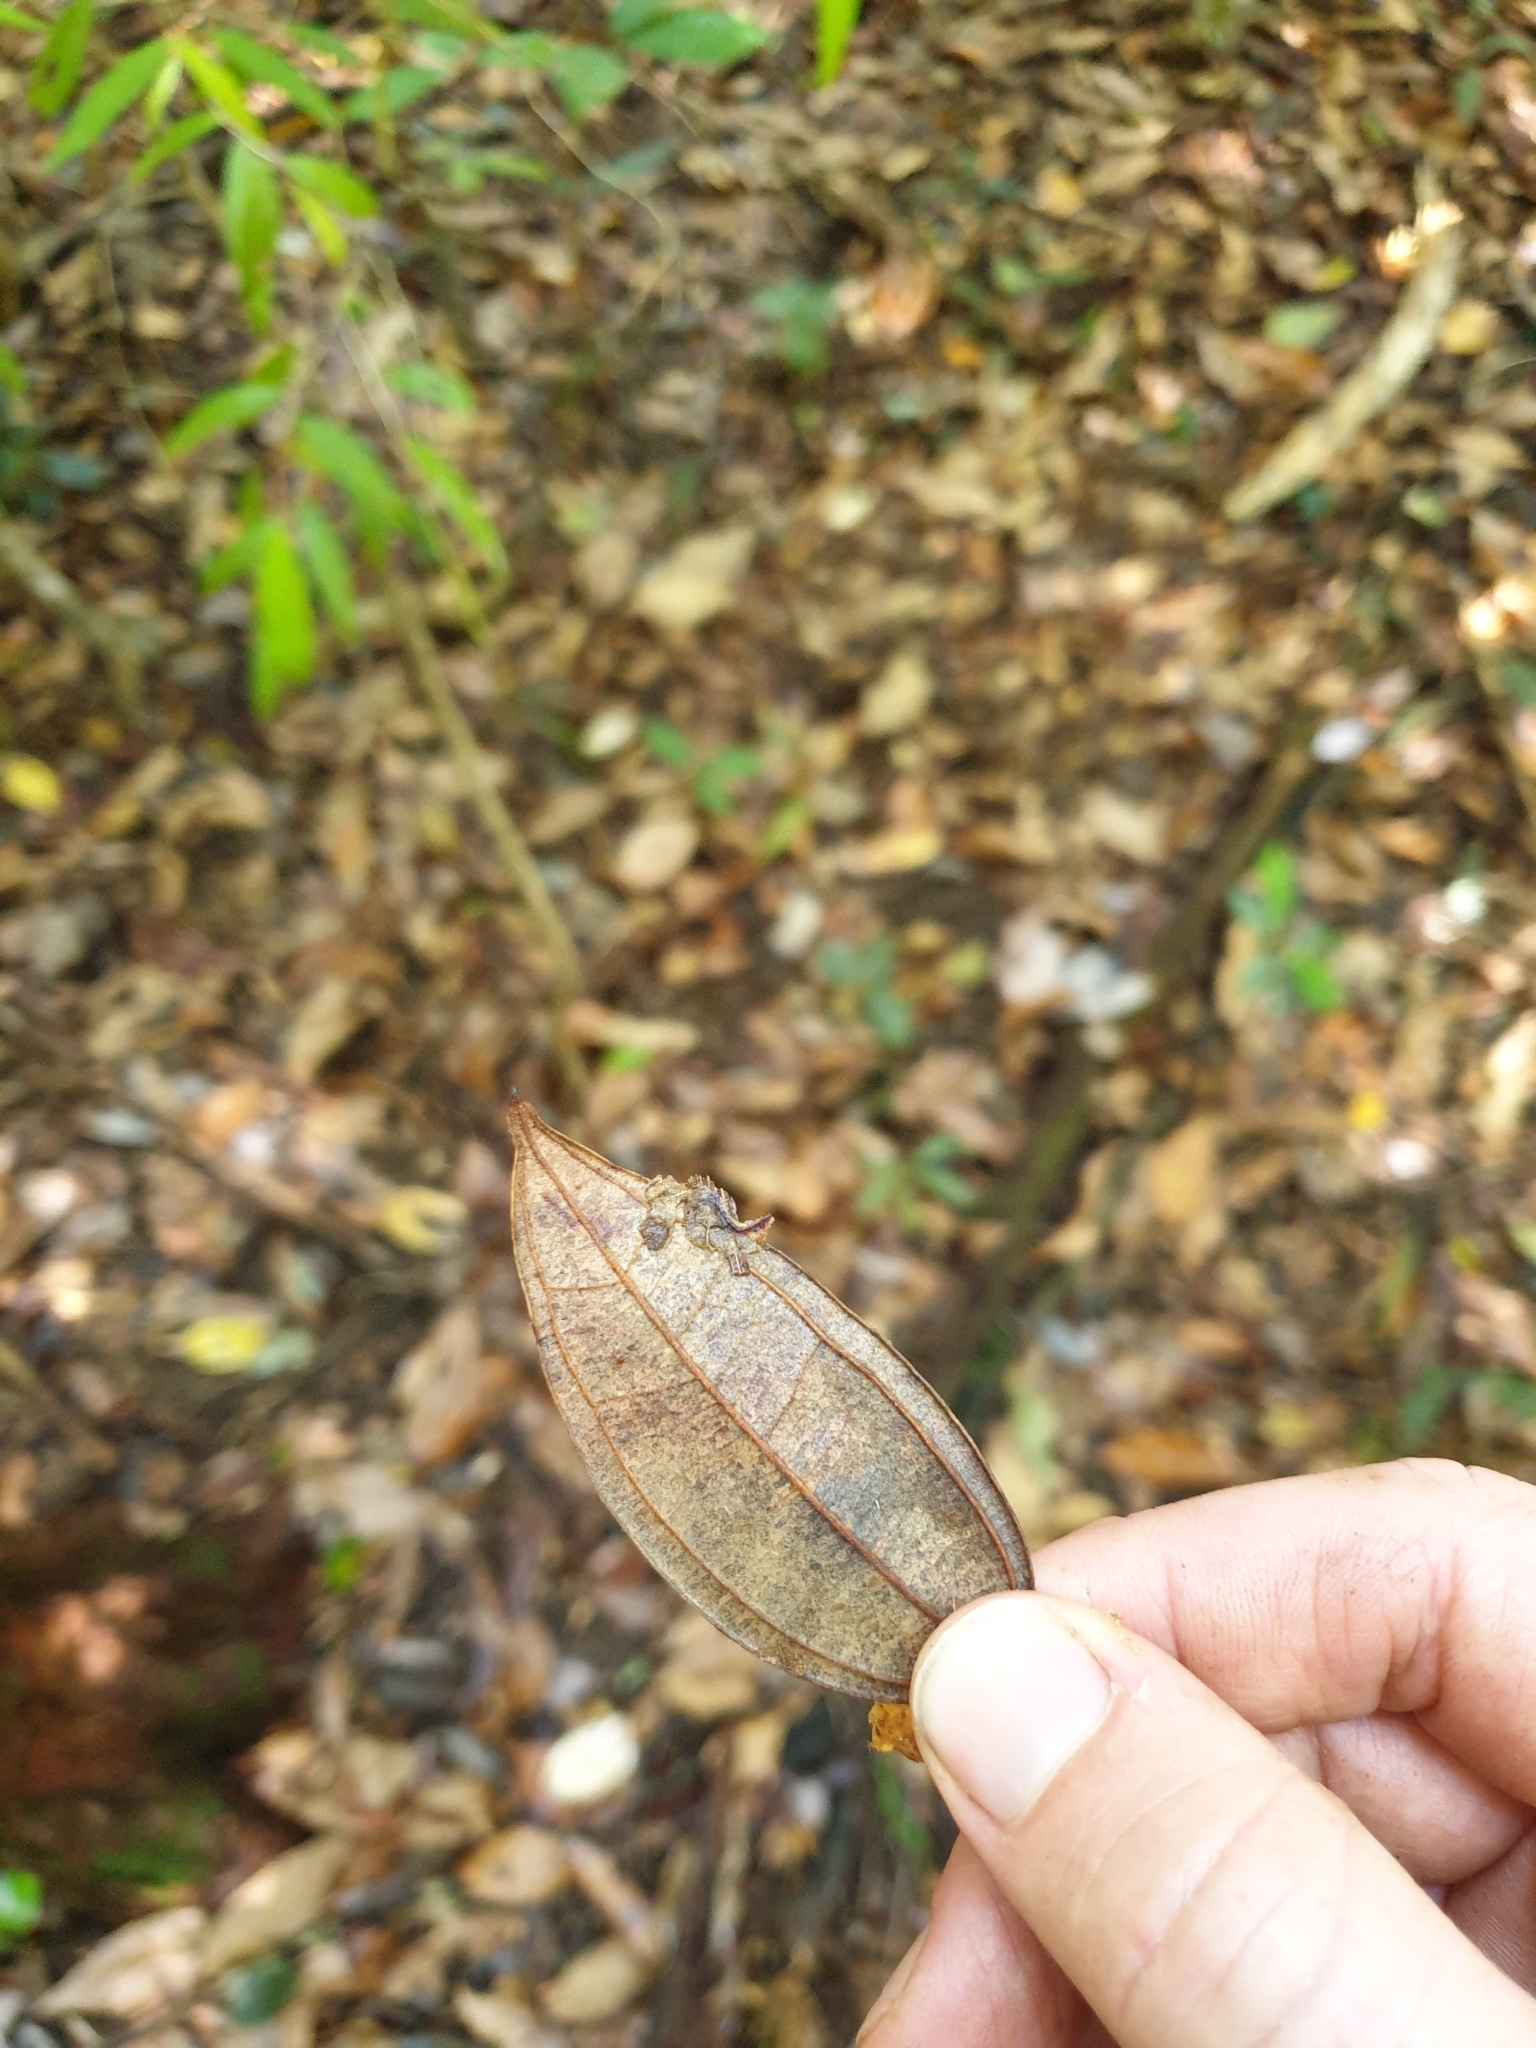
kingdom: Plantae
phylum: Tracheophyta
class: Magnoliopsida
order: Myrtales
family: Myrtaceae
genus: Rhodamnia
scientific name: Rhodamnia rubescens
